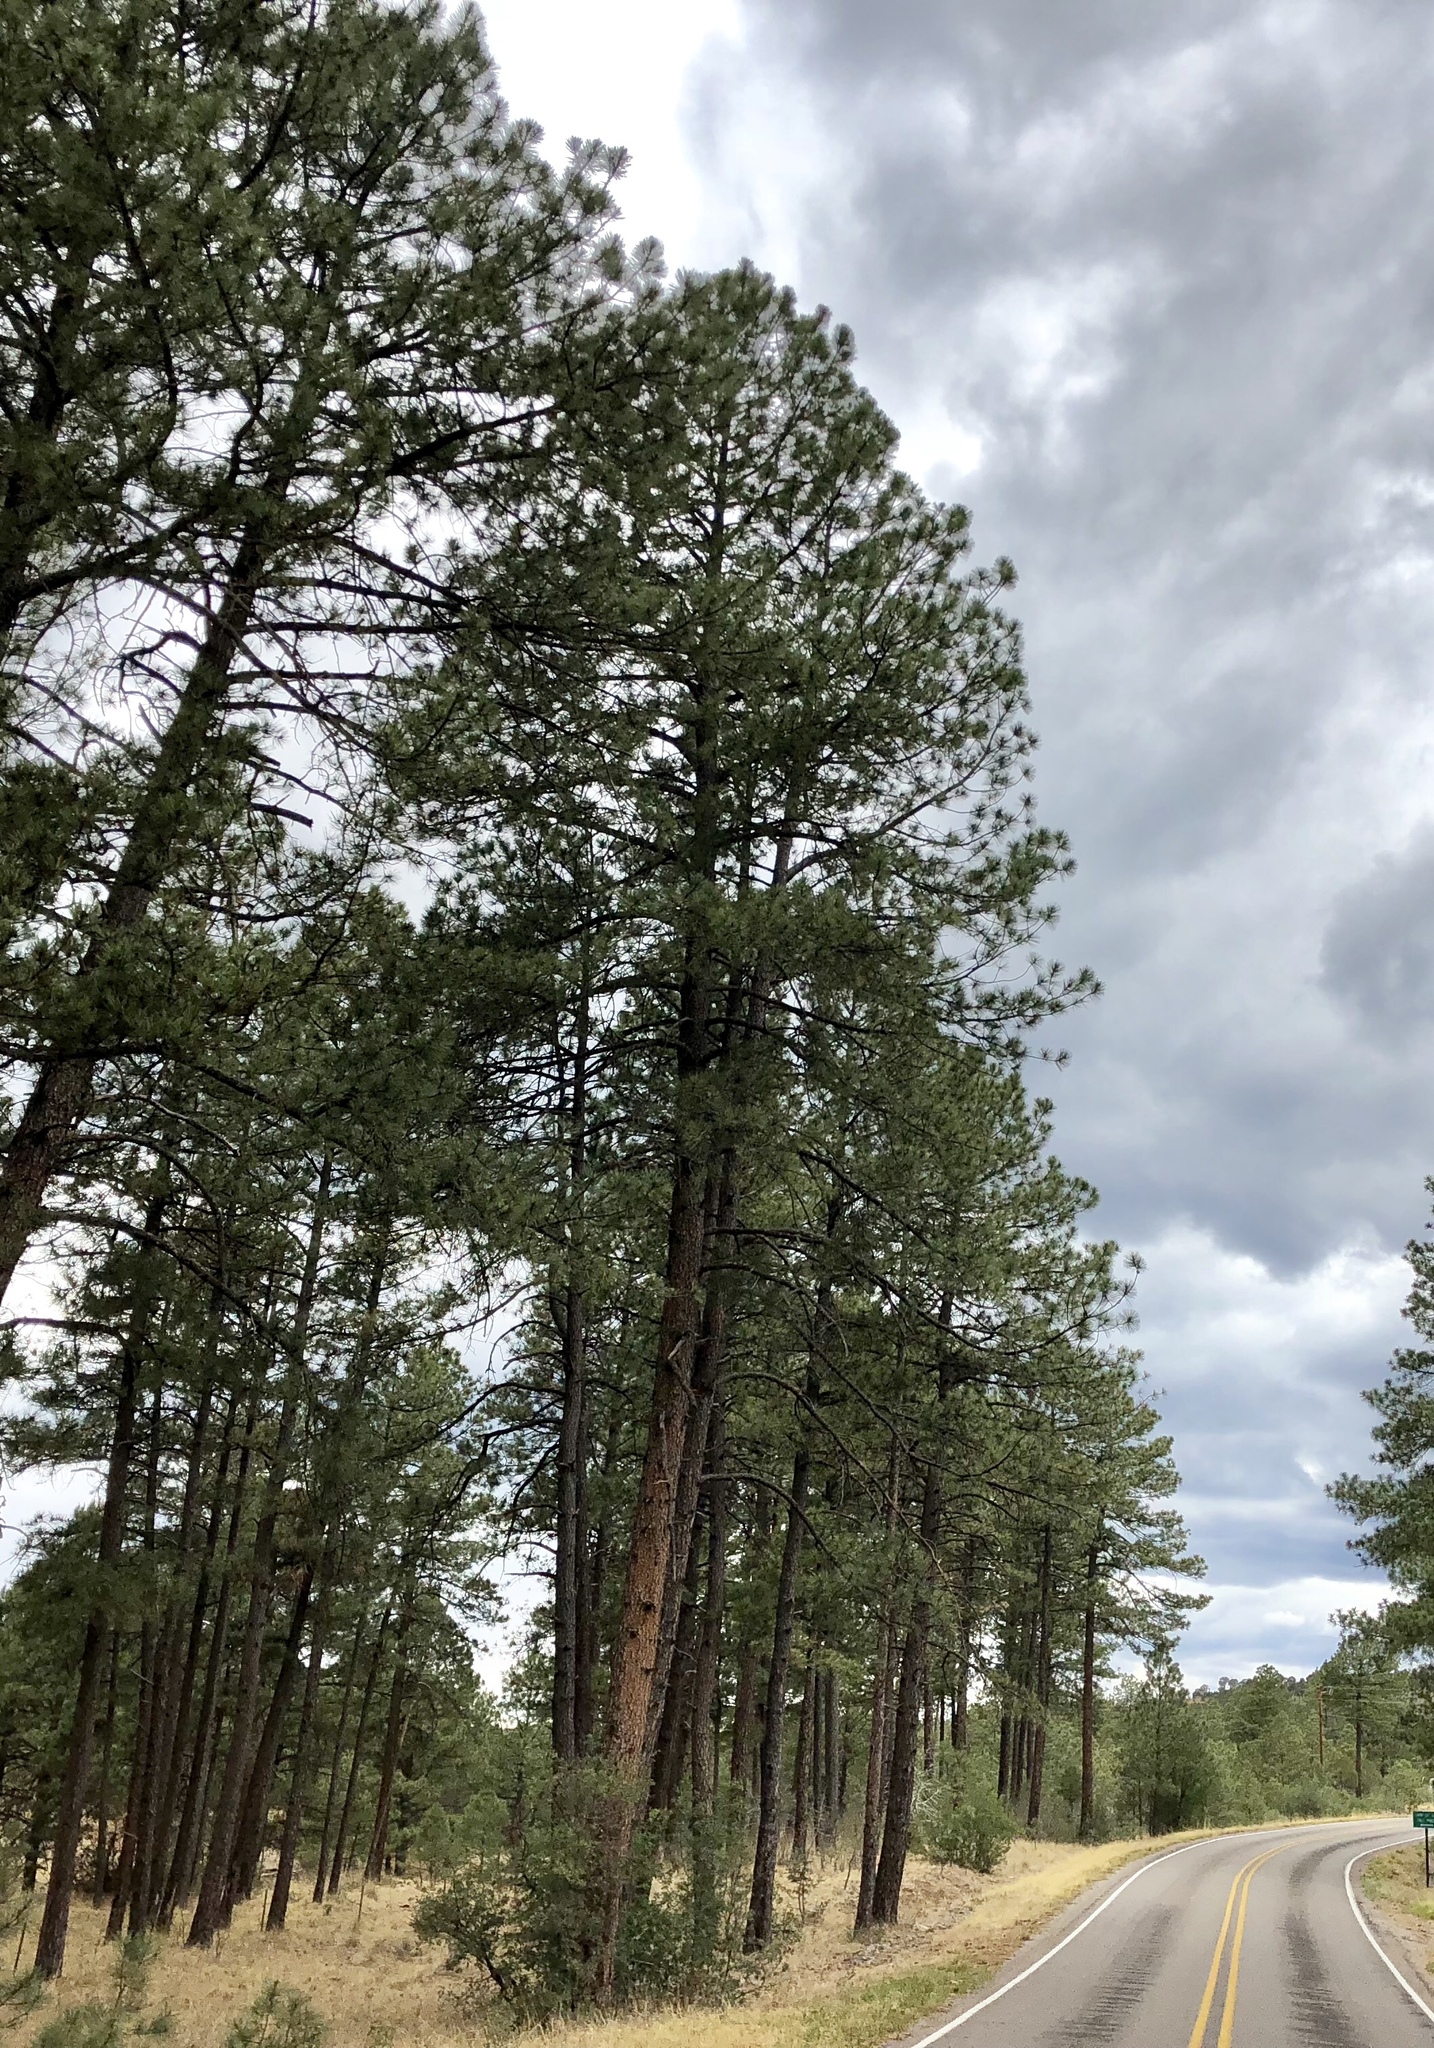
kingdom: Plantae
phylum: Tracheophyta
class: Pinopsida
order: Pinales
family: Pinaceae
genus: Pinus
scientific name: Pinus ponderosa
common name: Western yellow-pine
